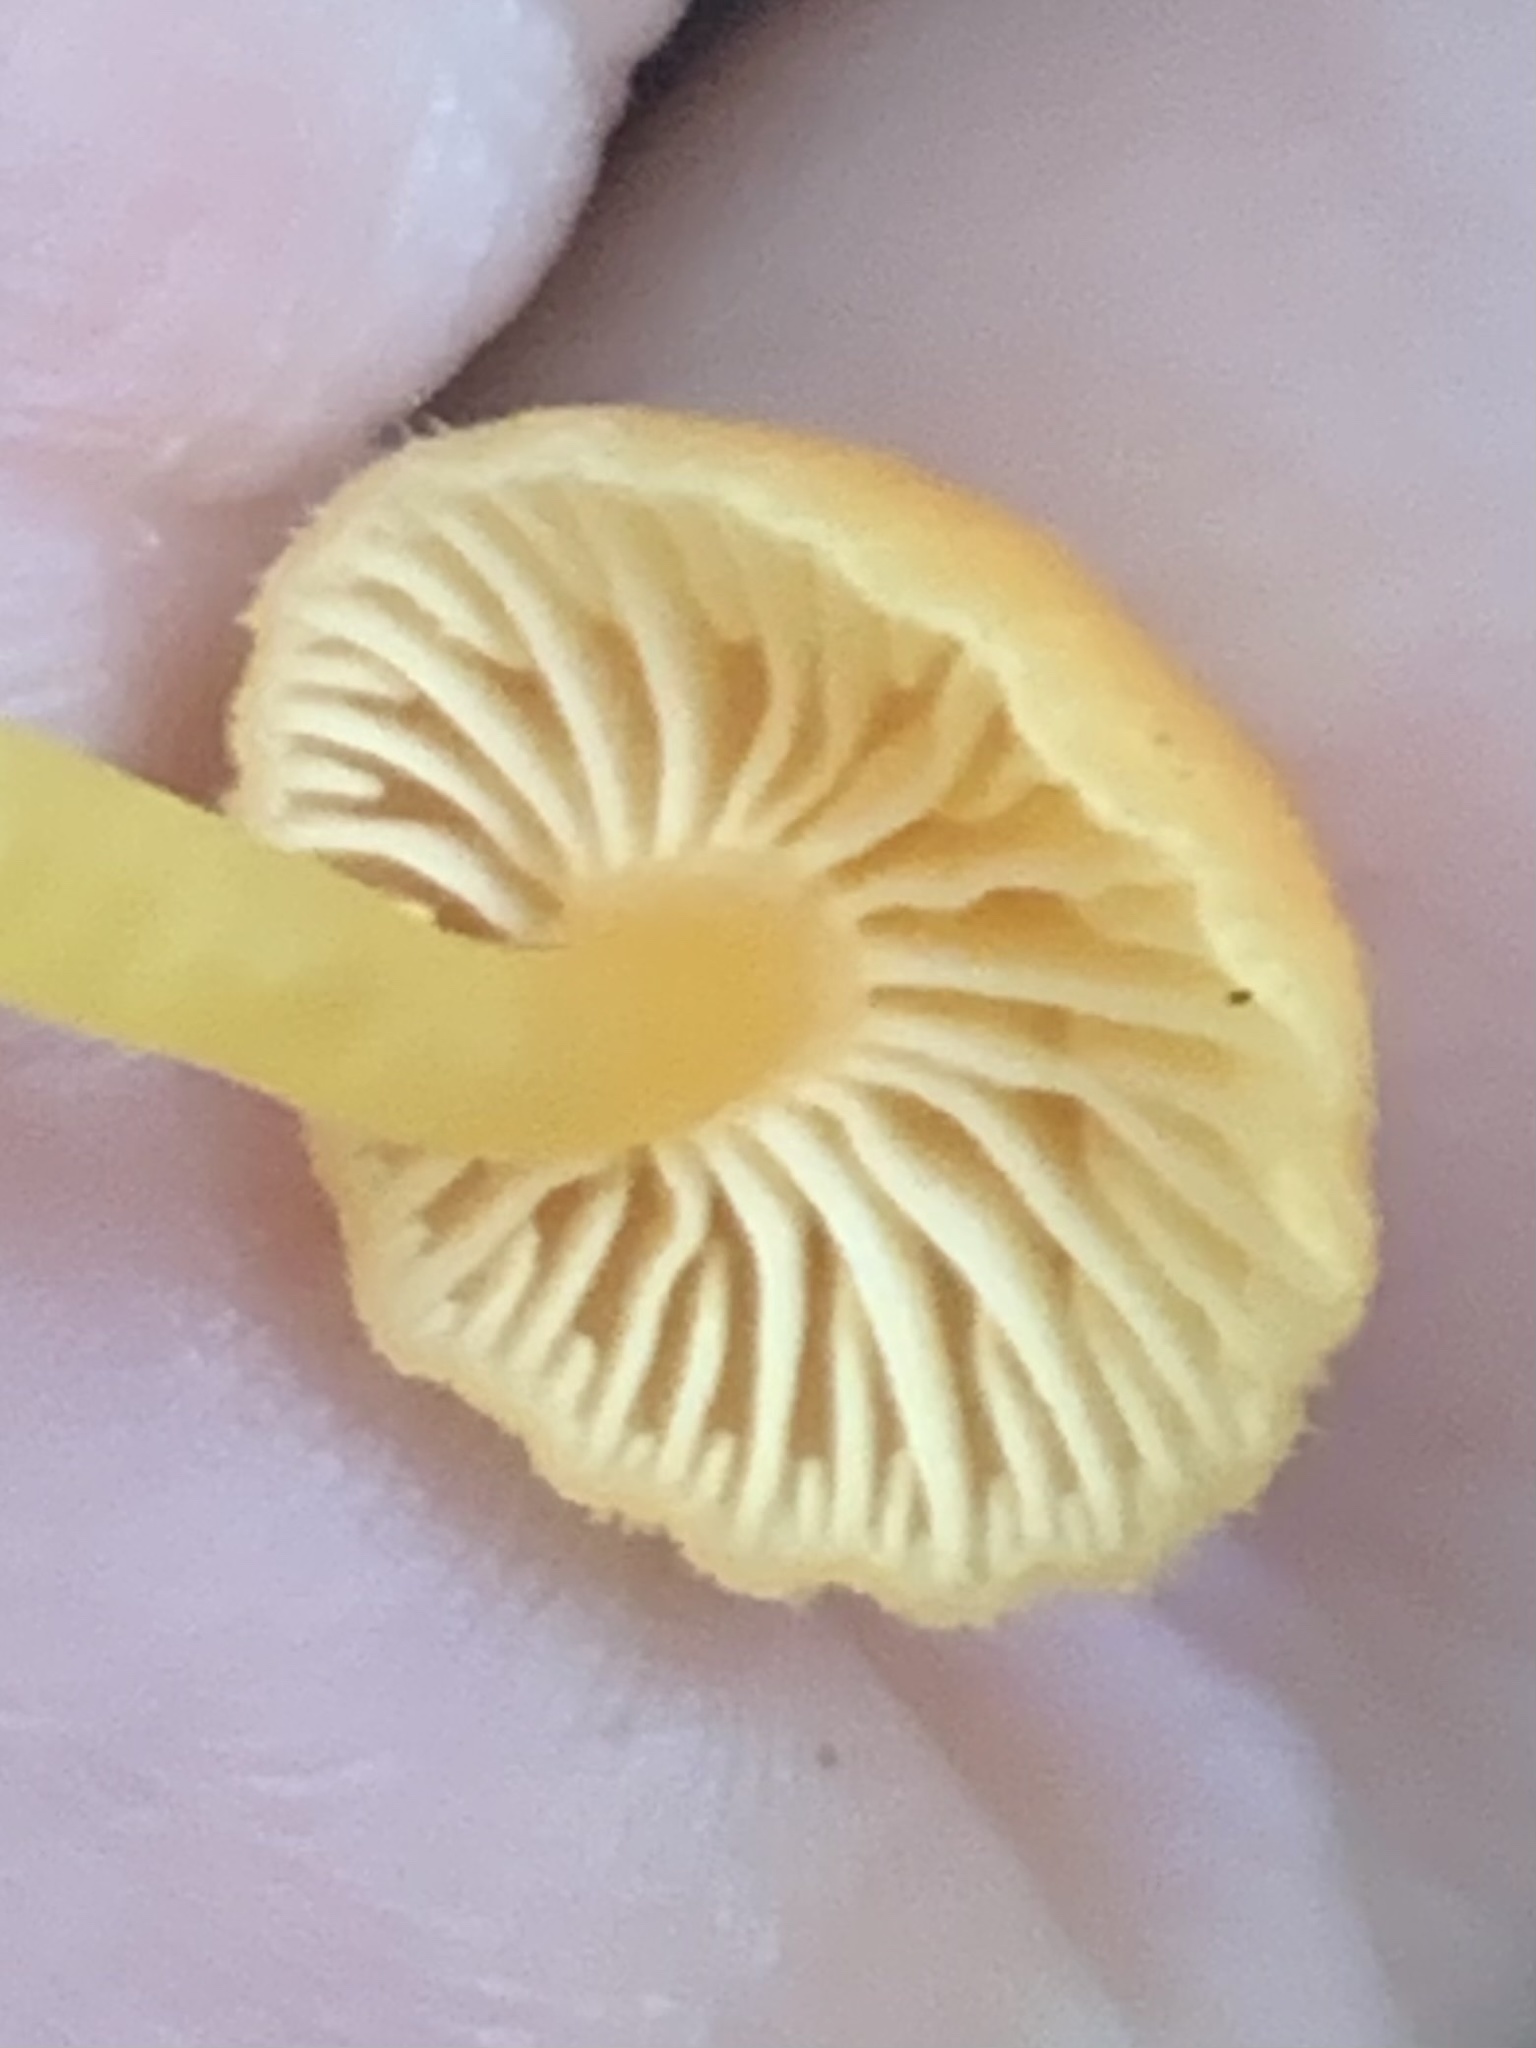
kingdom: Fungi
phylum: Basidiomycota
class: Agaricomycetes
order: Agaricales
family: Hygrophoraceae
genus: Chrysomphalina
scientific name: Chrysomphalina aurantiaca
